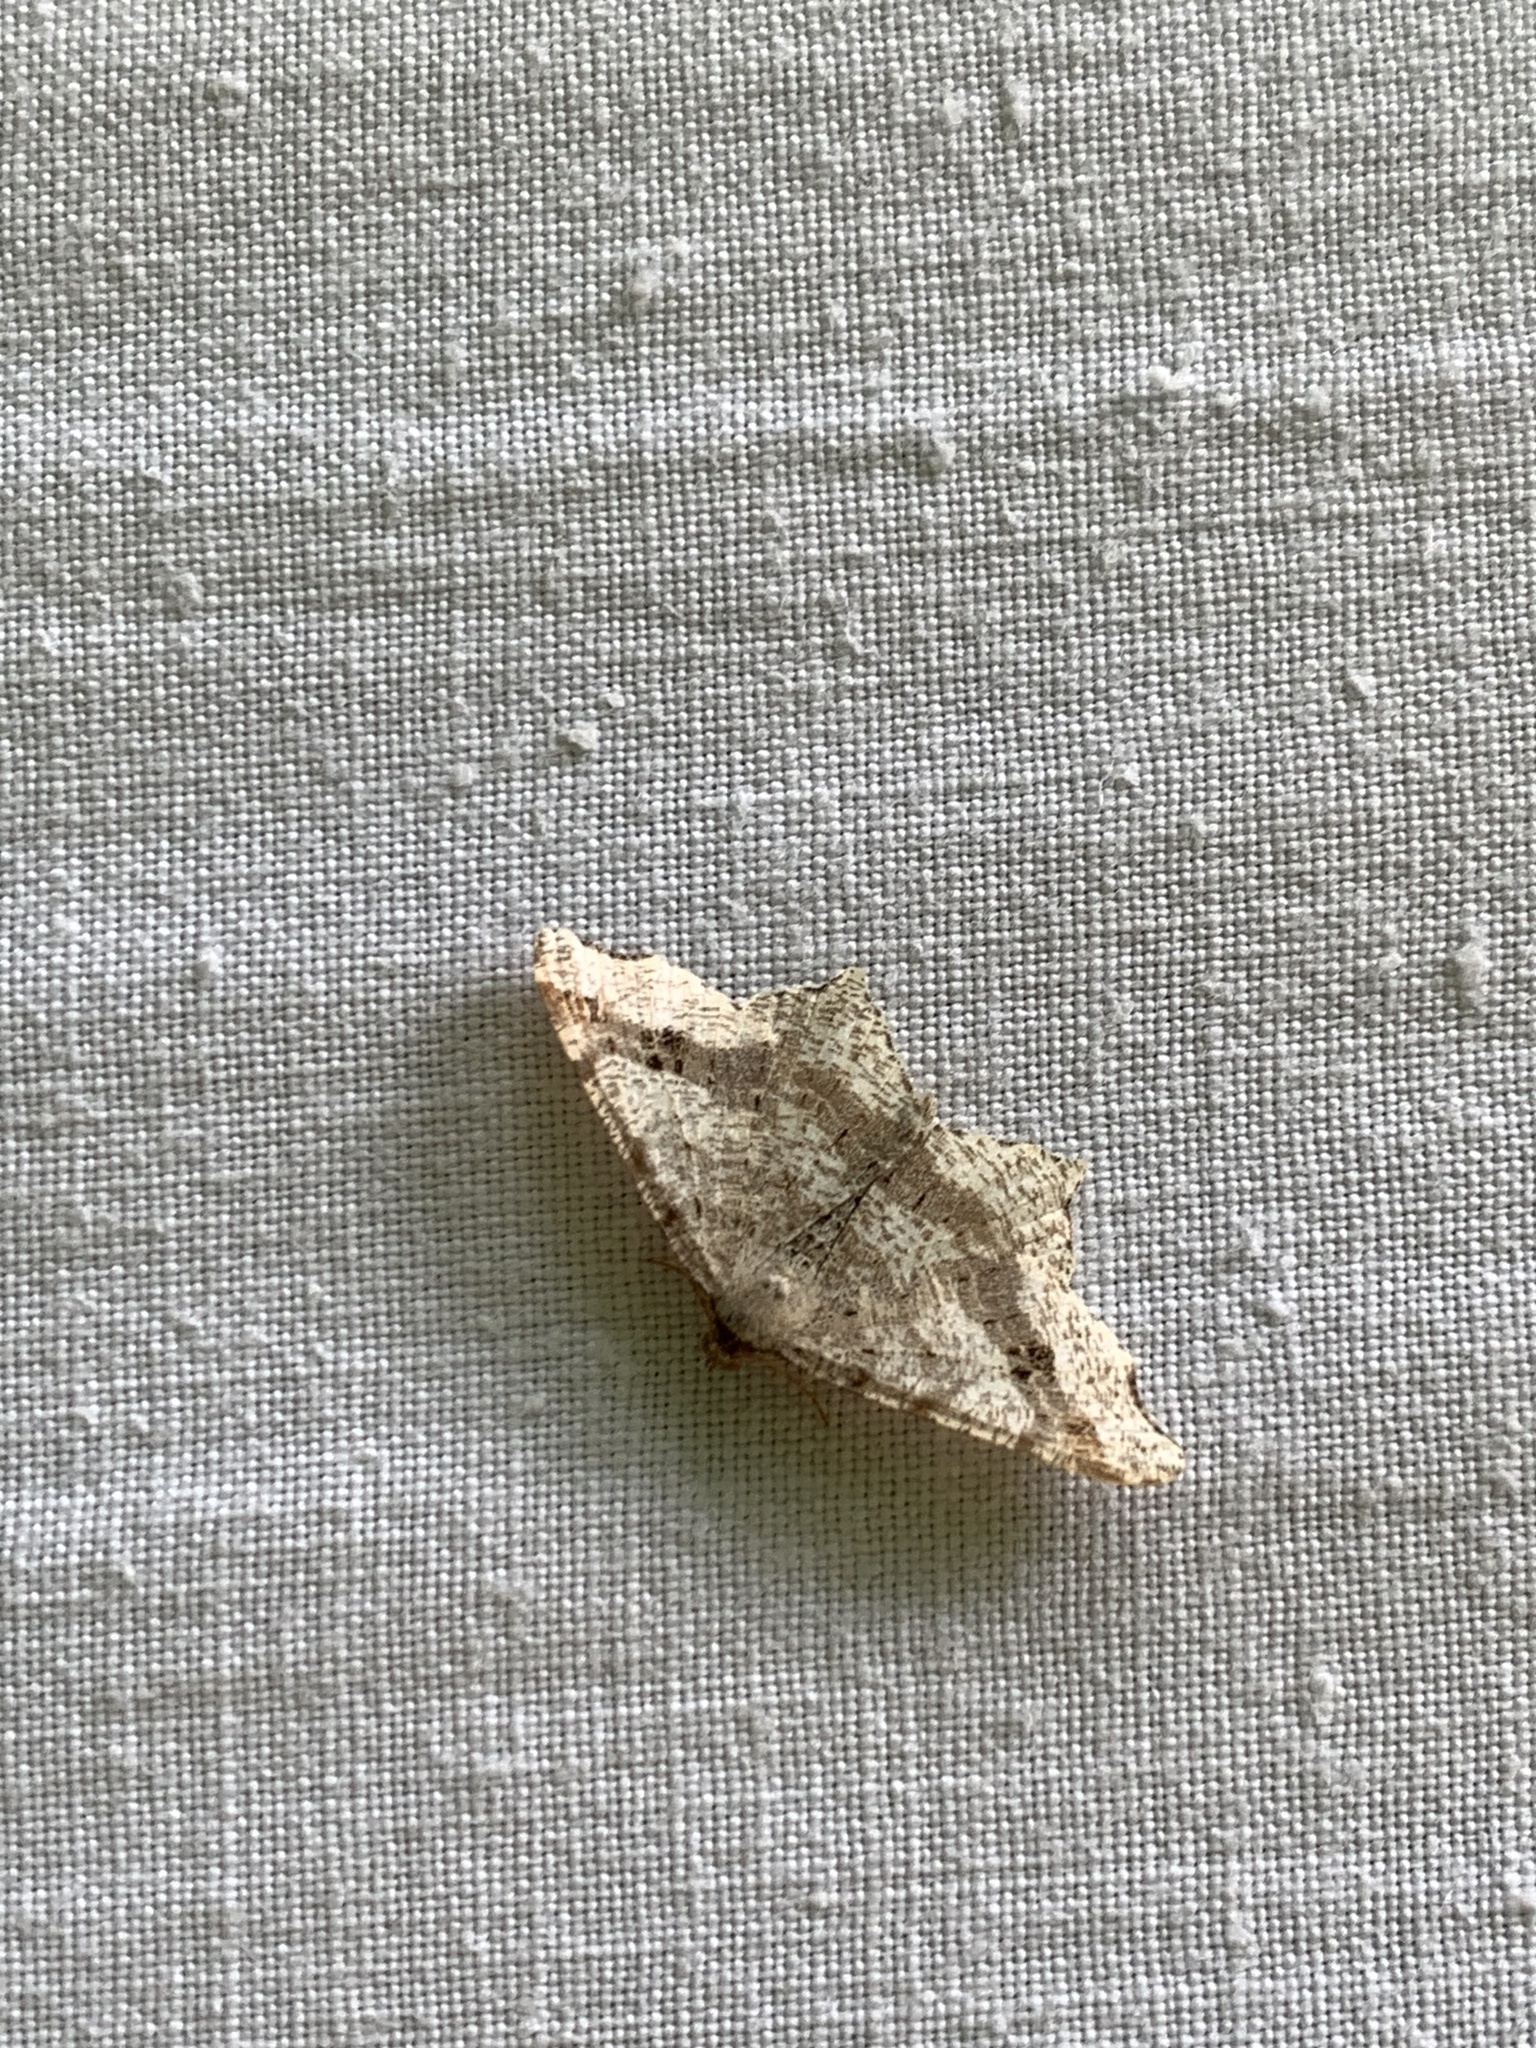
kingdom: Animalia
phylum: Arthropoda
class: Insecta
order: Lepidoptera
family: Geometridae
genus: Macaria
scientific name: Macaria alternata
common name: Sharp-angled peacock
